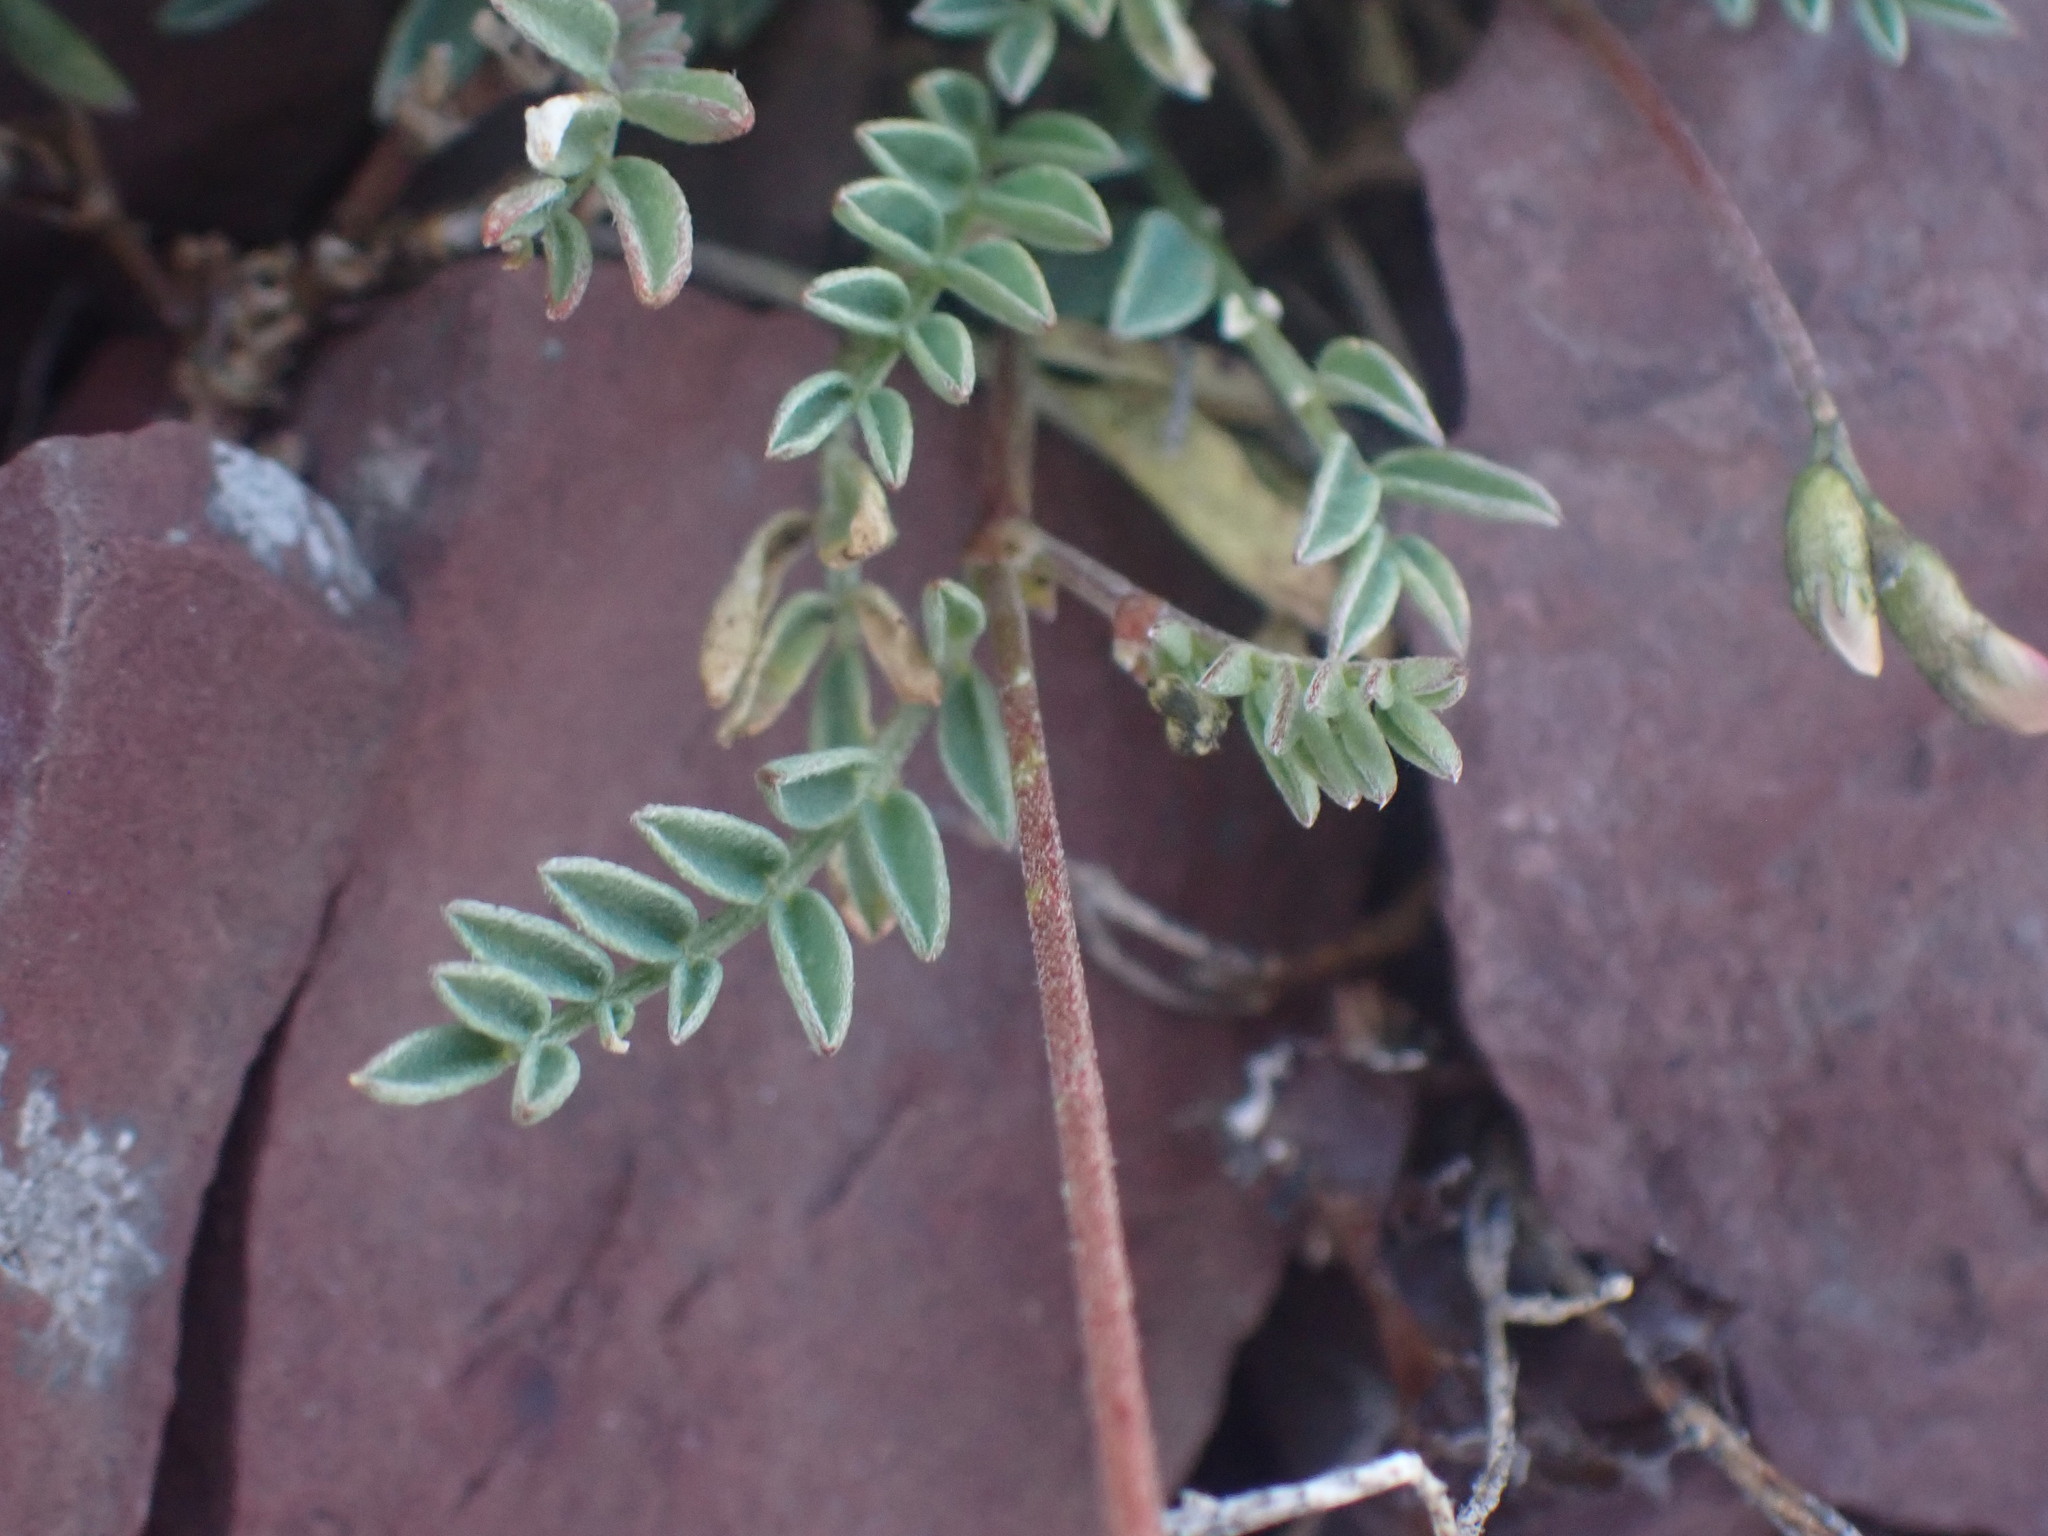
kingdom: Plantae
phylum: Tracheophyta
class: Magnoliopsida
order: Fabales
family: Fabaceae
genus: Astragalus
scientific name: Astragalus bourgovii
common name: Bourgeau's milk-vetch
